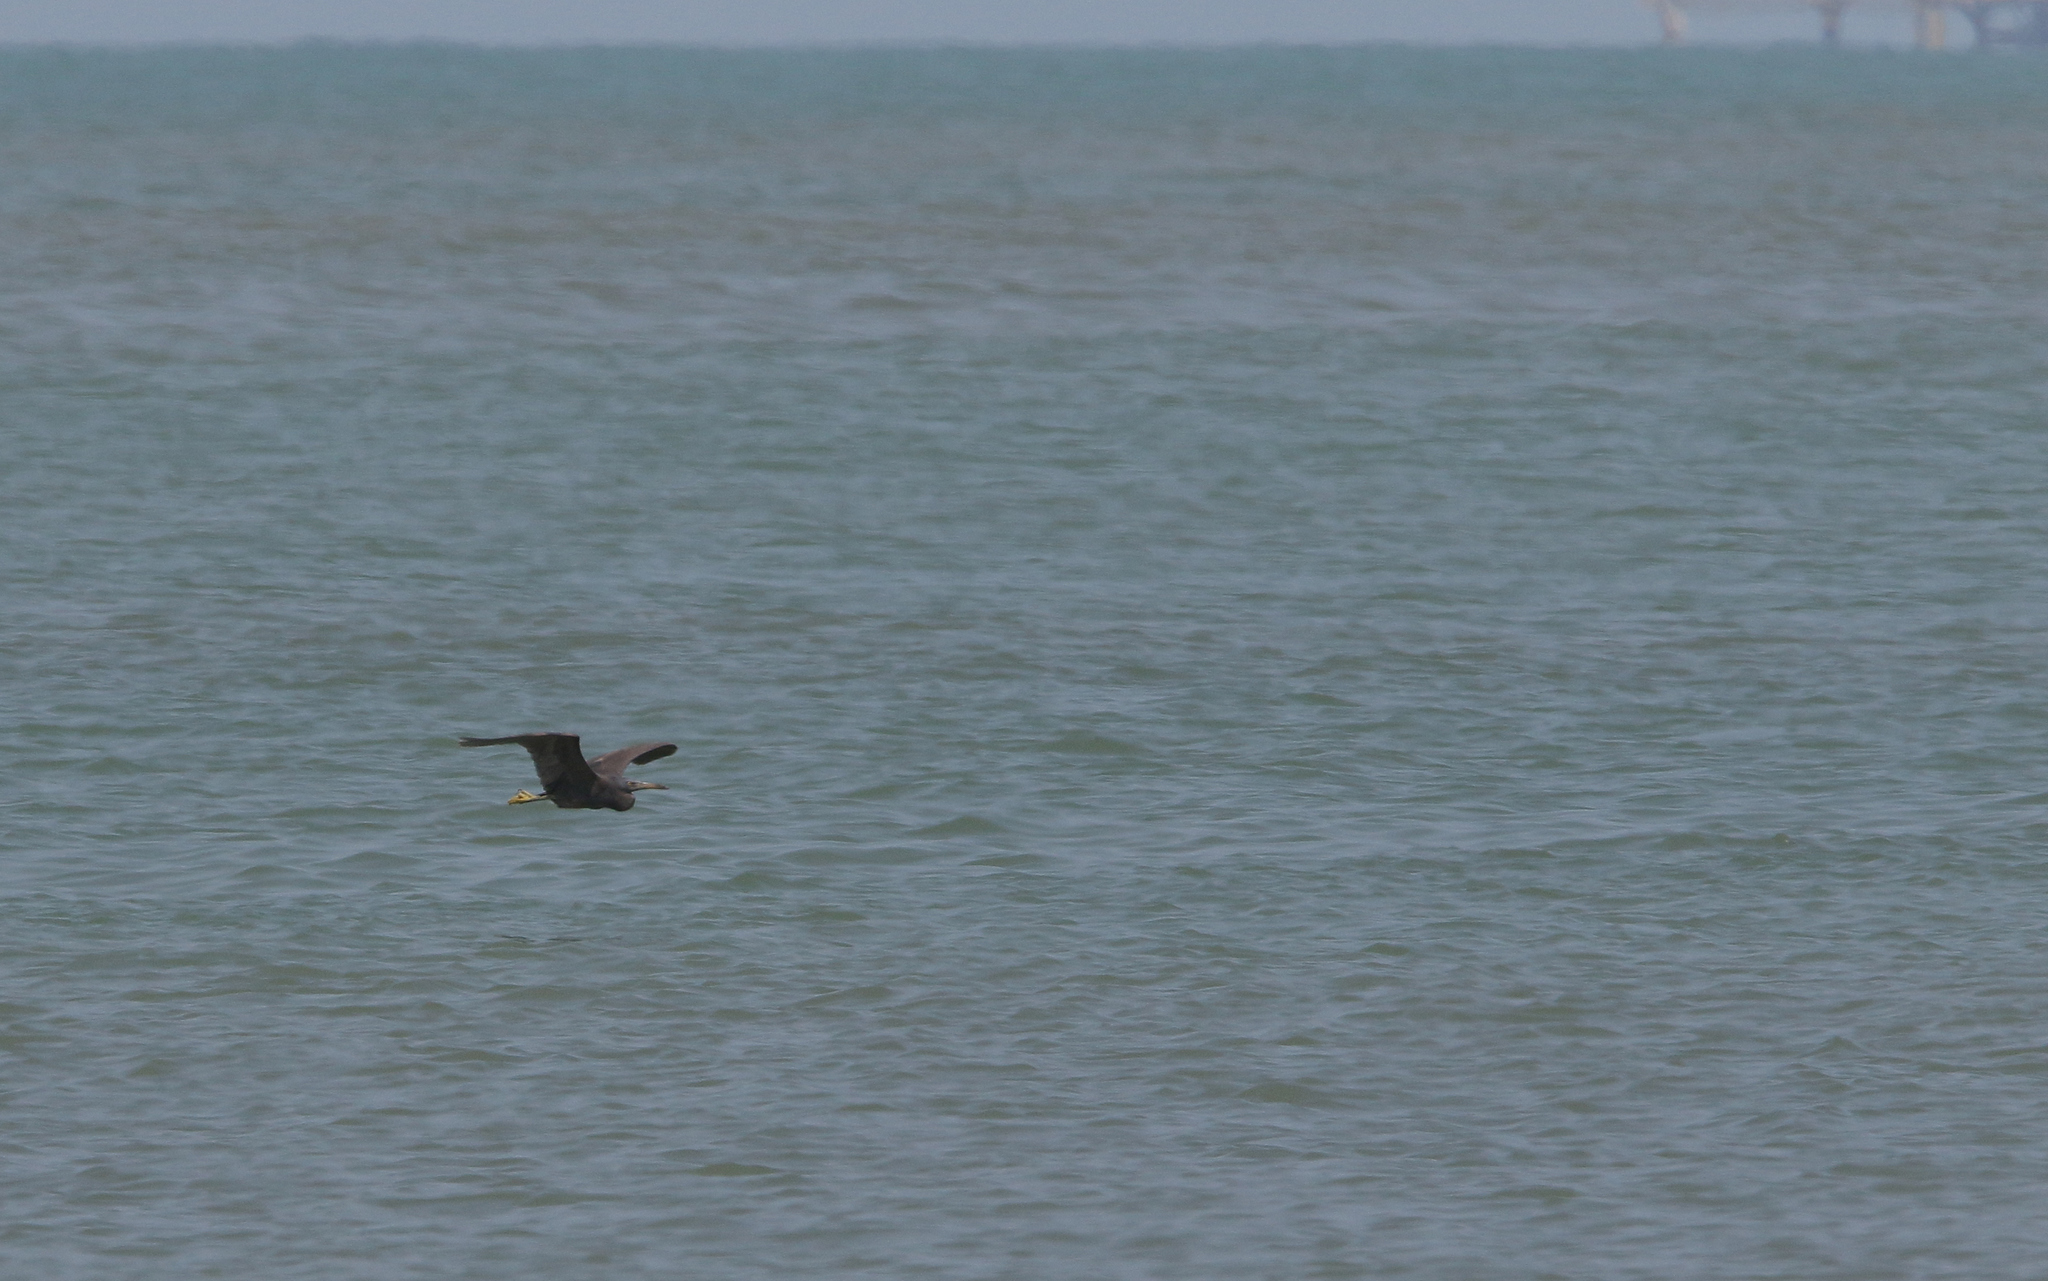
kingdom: Animalia
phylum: Chordata
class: Aves
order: Pelecaniformes
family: Ardeidae
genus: Egretta
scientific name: Egretta sacra
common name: Pacific reef heron
